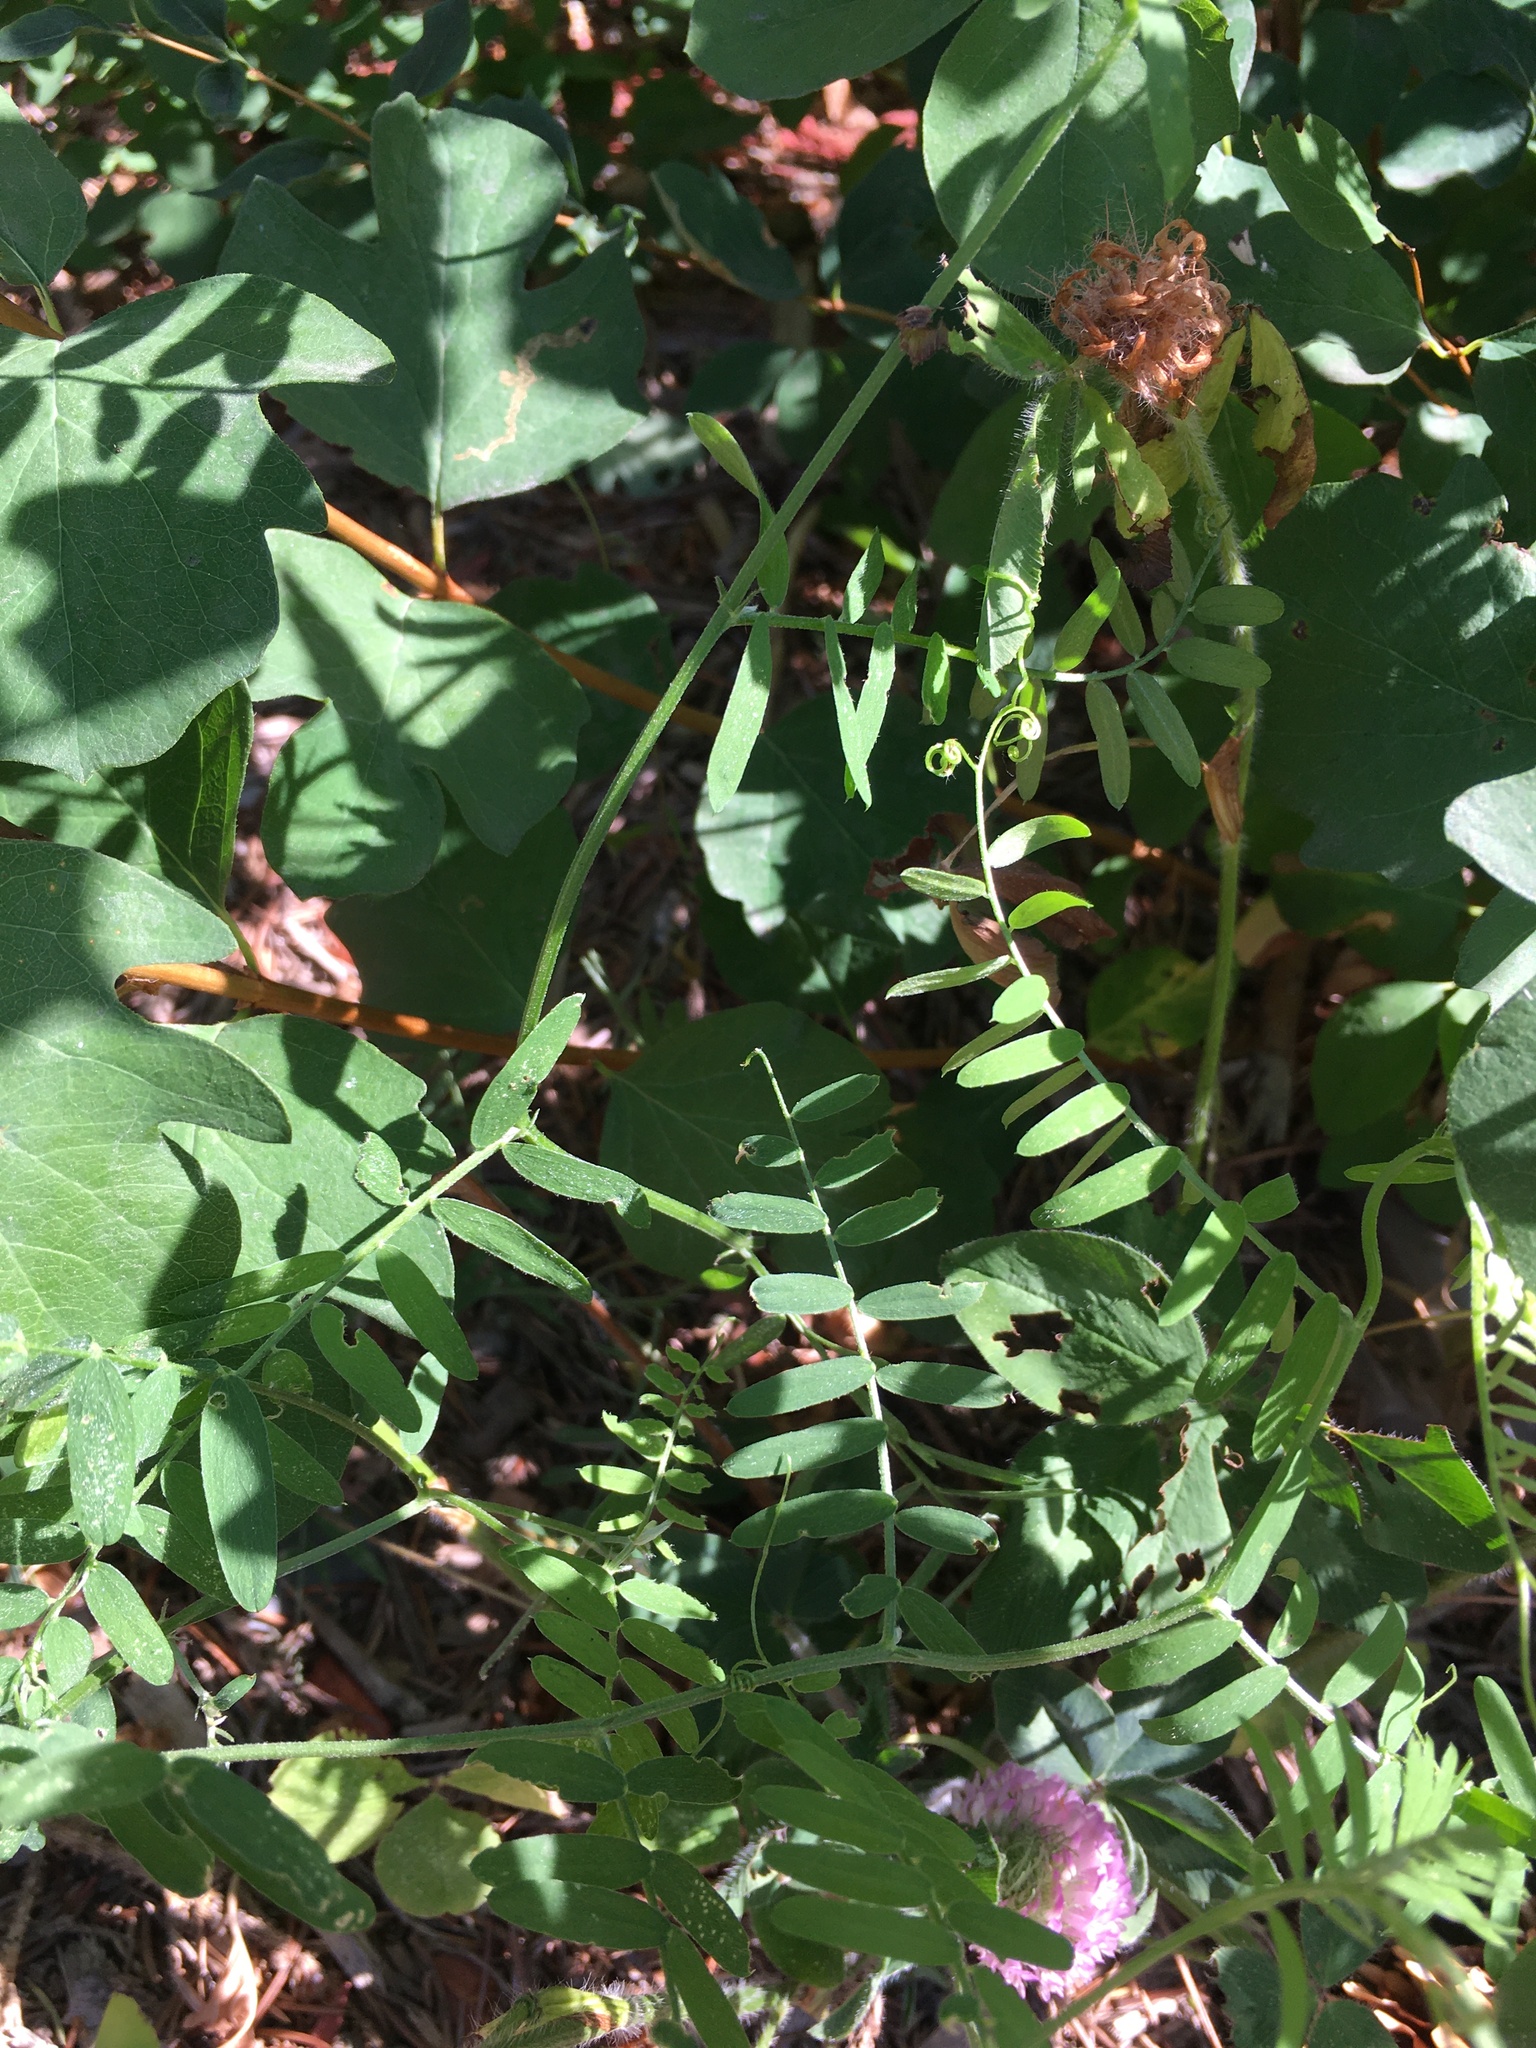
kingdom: Plantae
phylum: Tracheophyta
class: Magnoliopsida
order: Fabales
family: Fabaceae
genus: Vicia
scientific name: Vicia cracca
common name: Bird vetch
